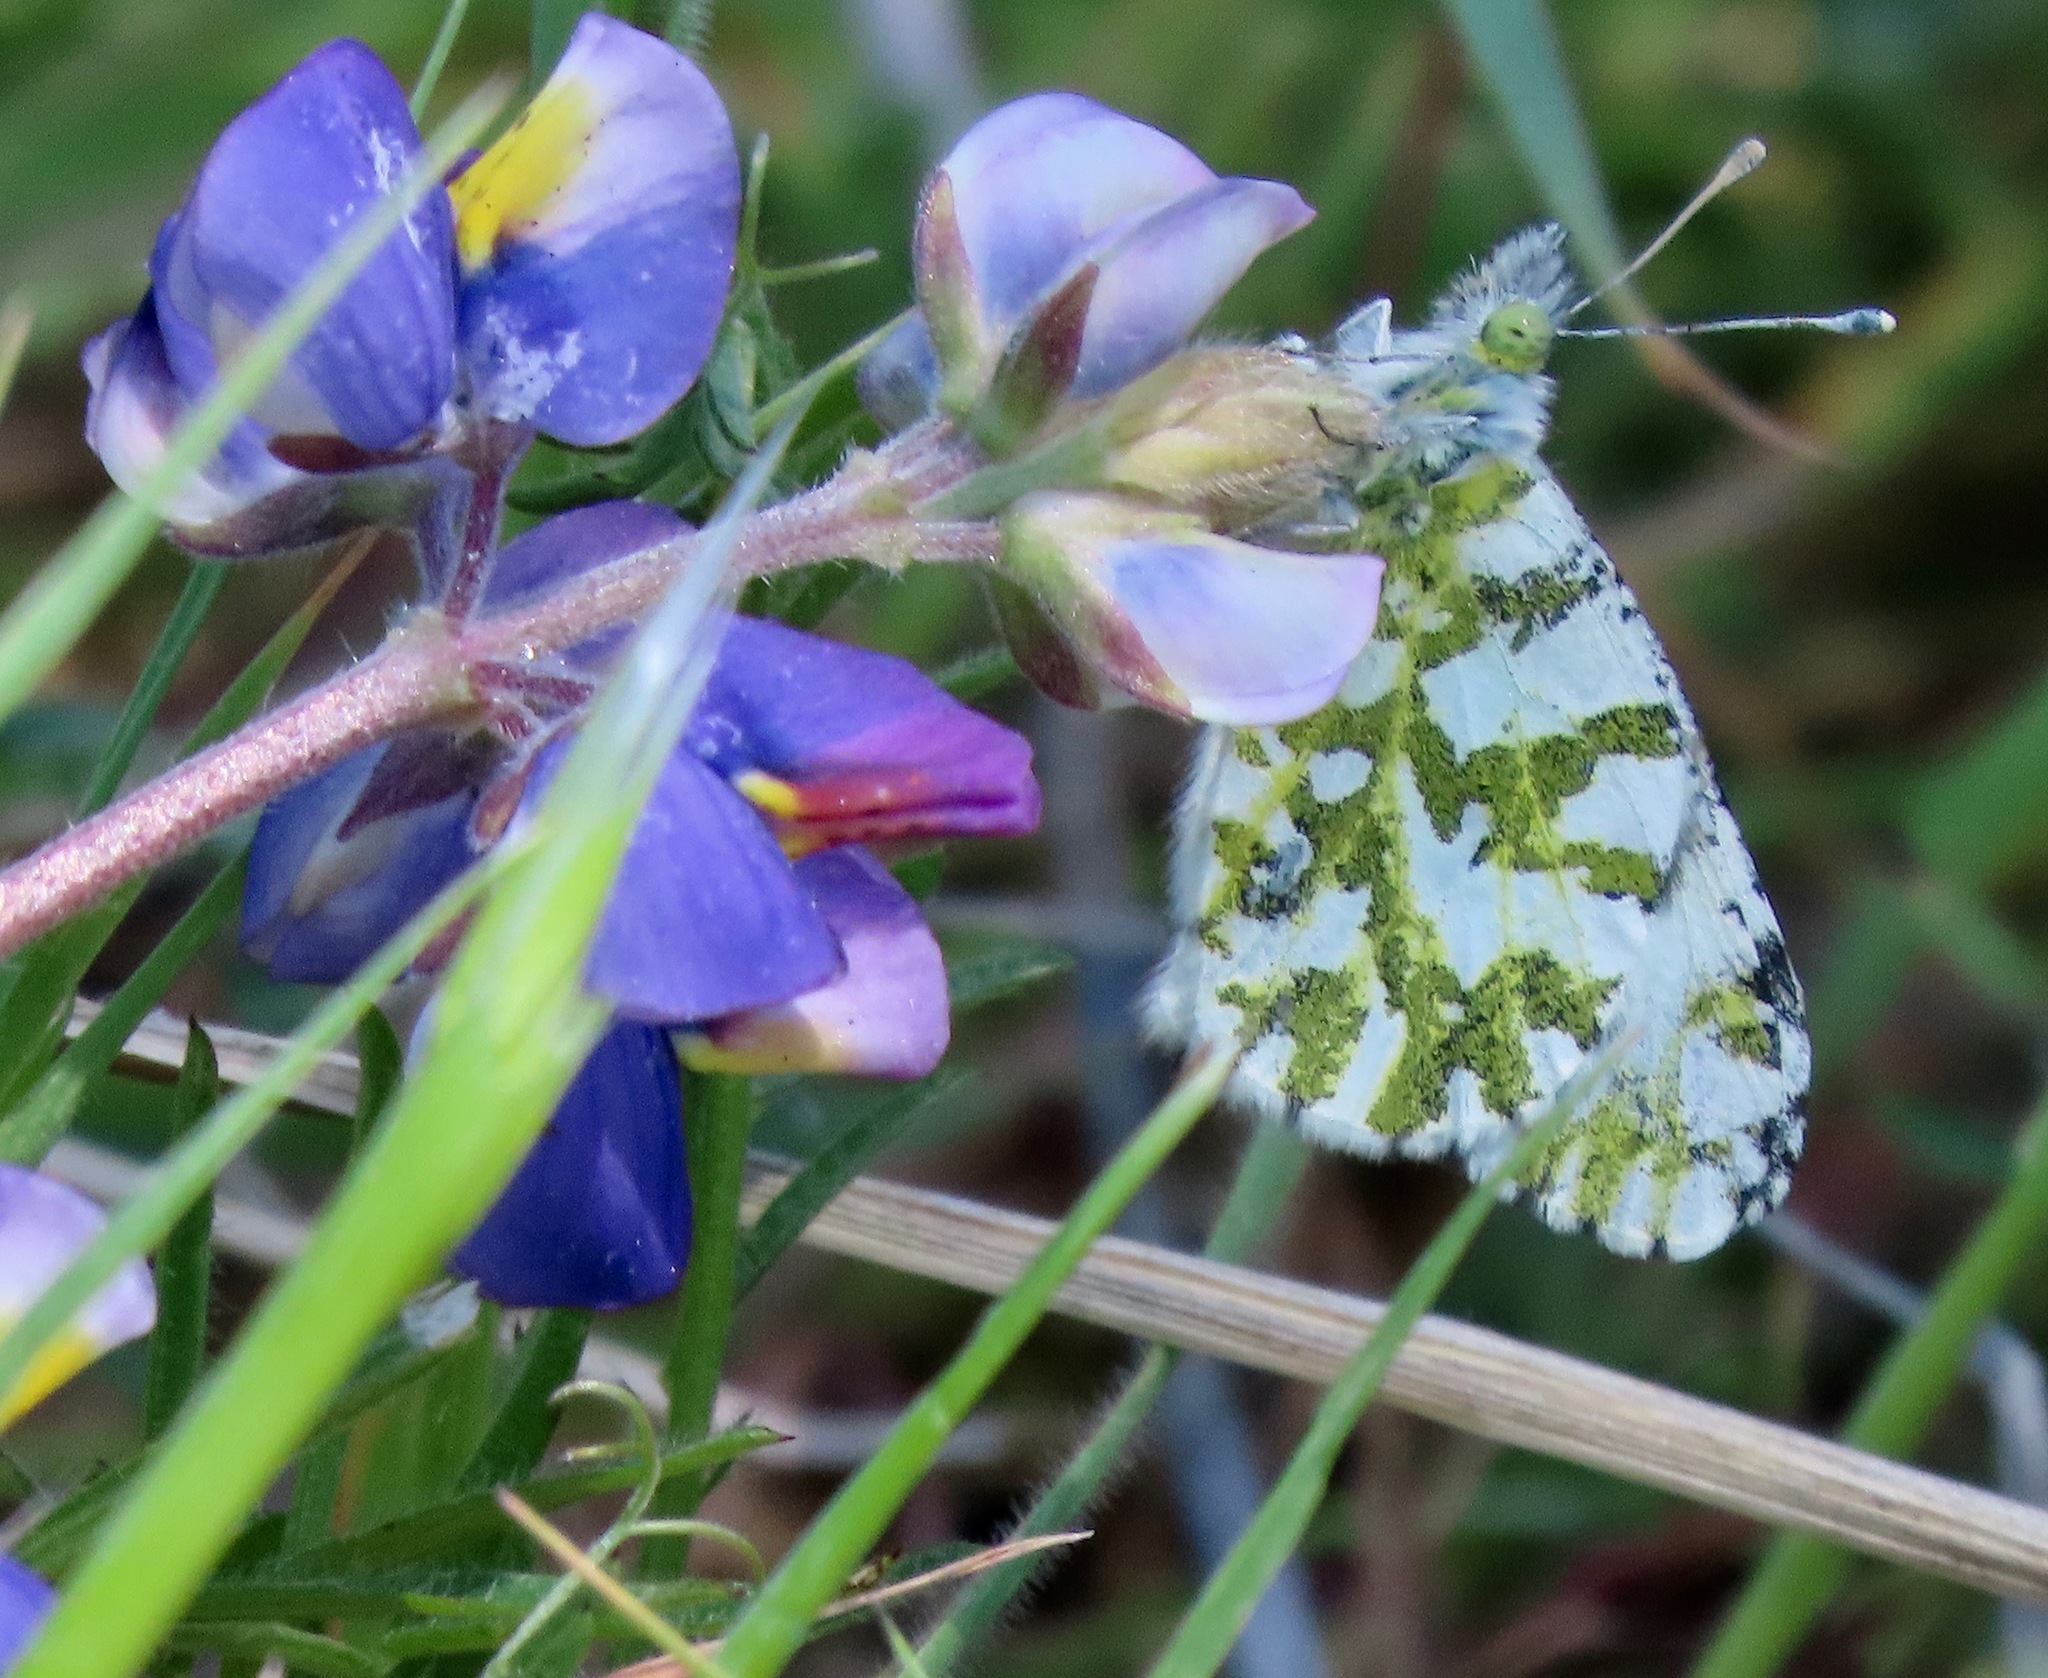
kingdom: Animalia
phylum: Arthropoda
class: Insecta
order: Lepidoptera
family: Pieridae
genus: Euchloe
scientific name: Euchloe hyantis
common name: California marble
